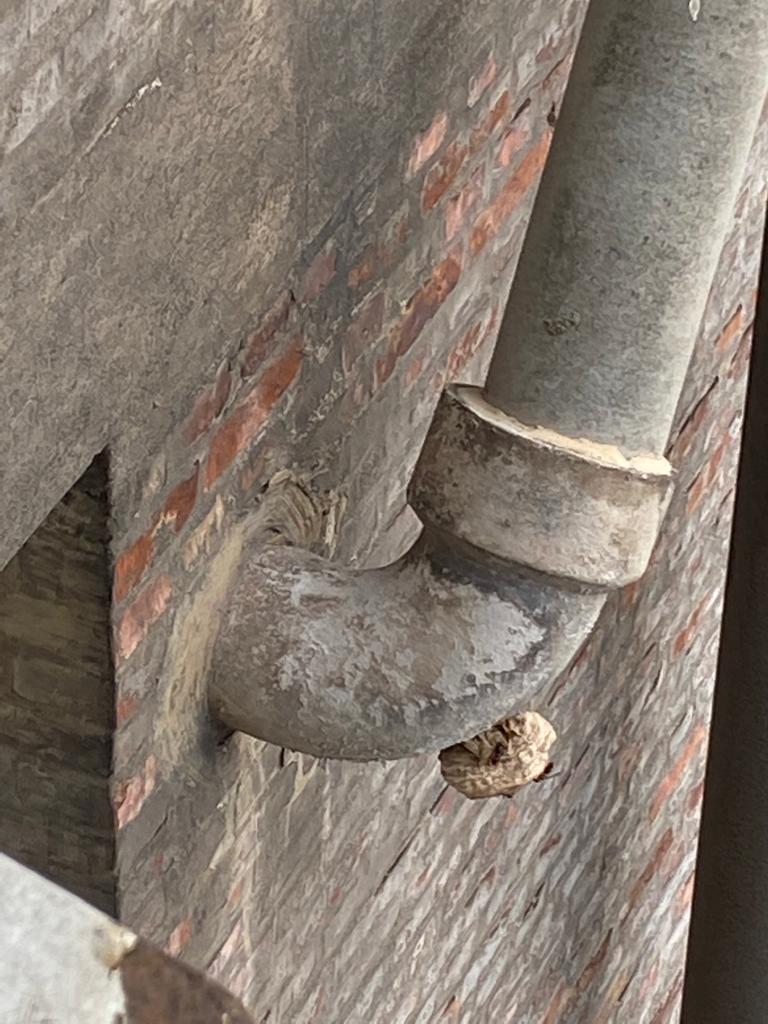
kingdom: Animalia
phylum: Arthropoda
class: Insecta
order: Hymenoptera
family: Vespidae
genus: Vespa
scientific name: Vespa velutina
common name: Asian hornet
